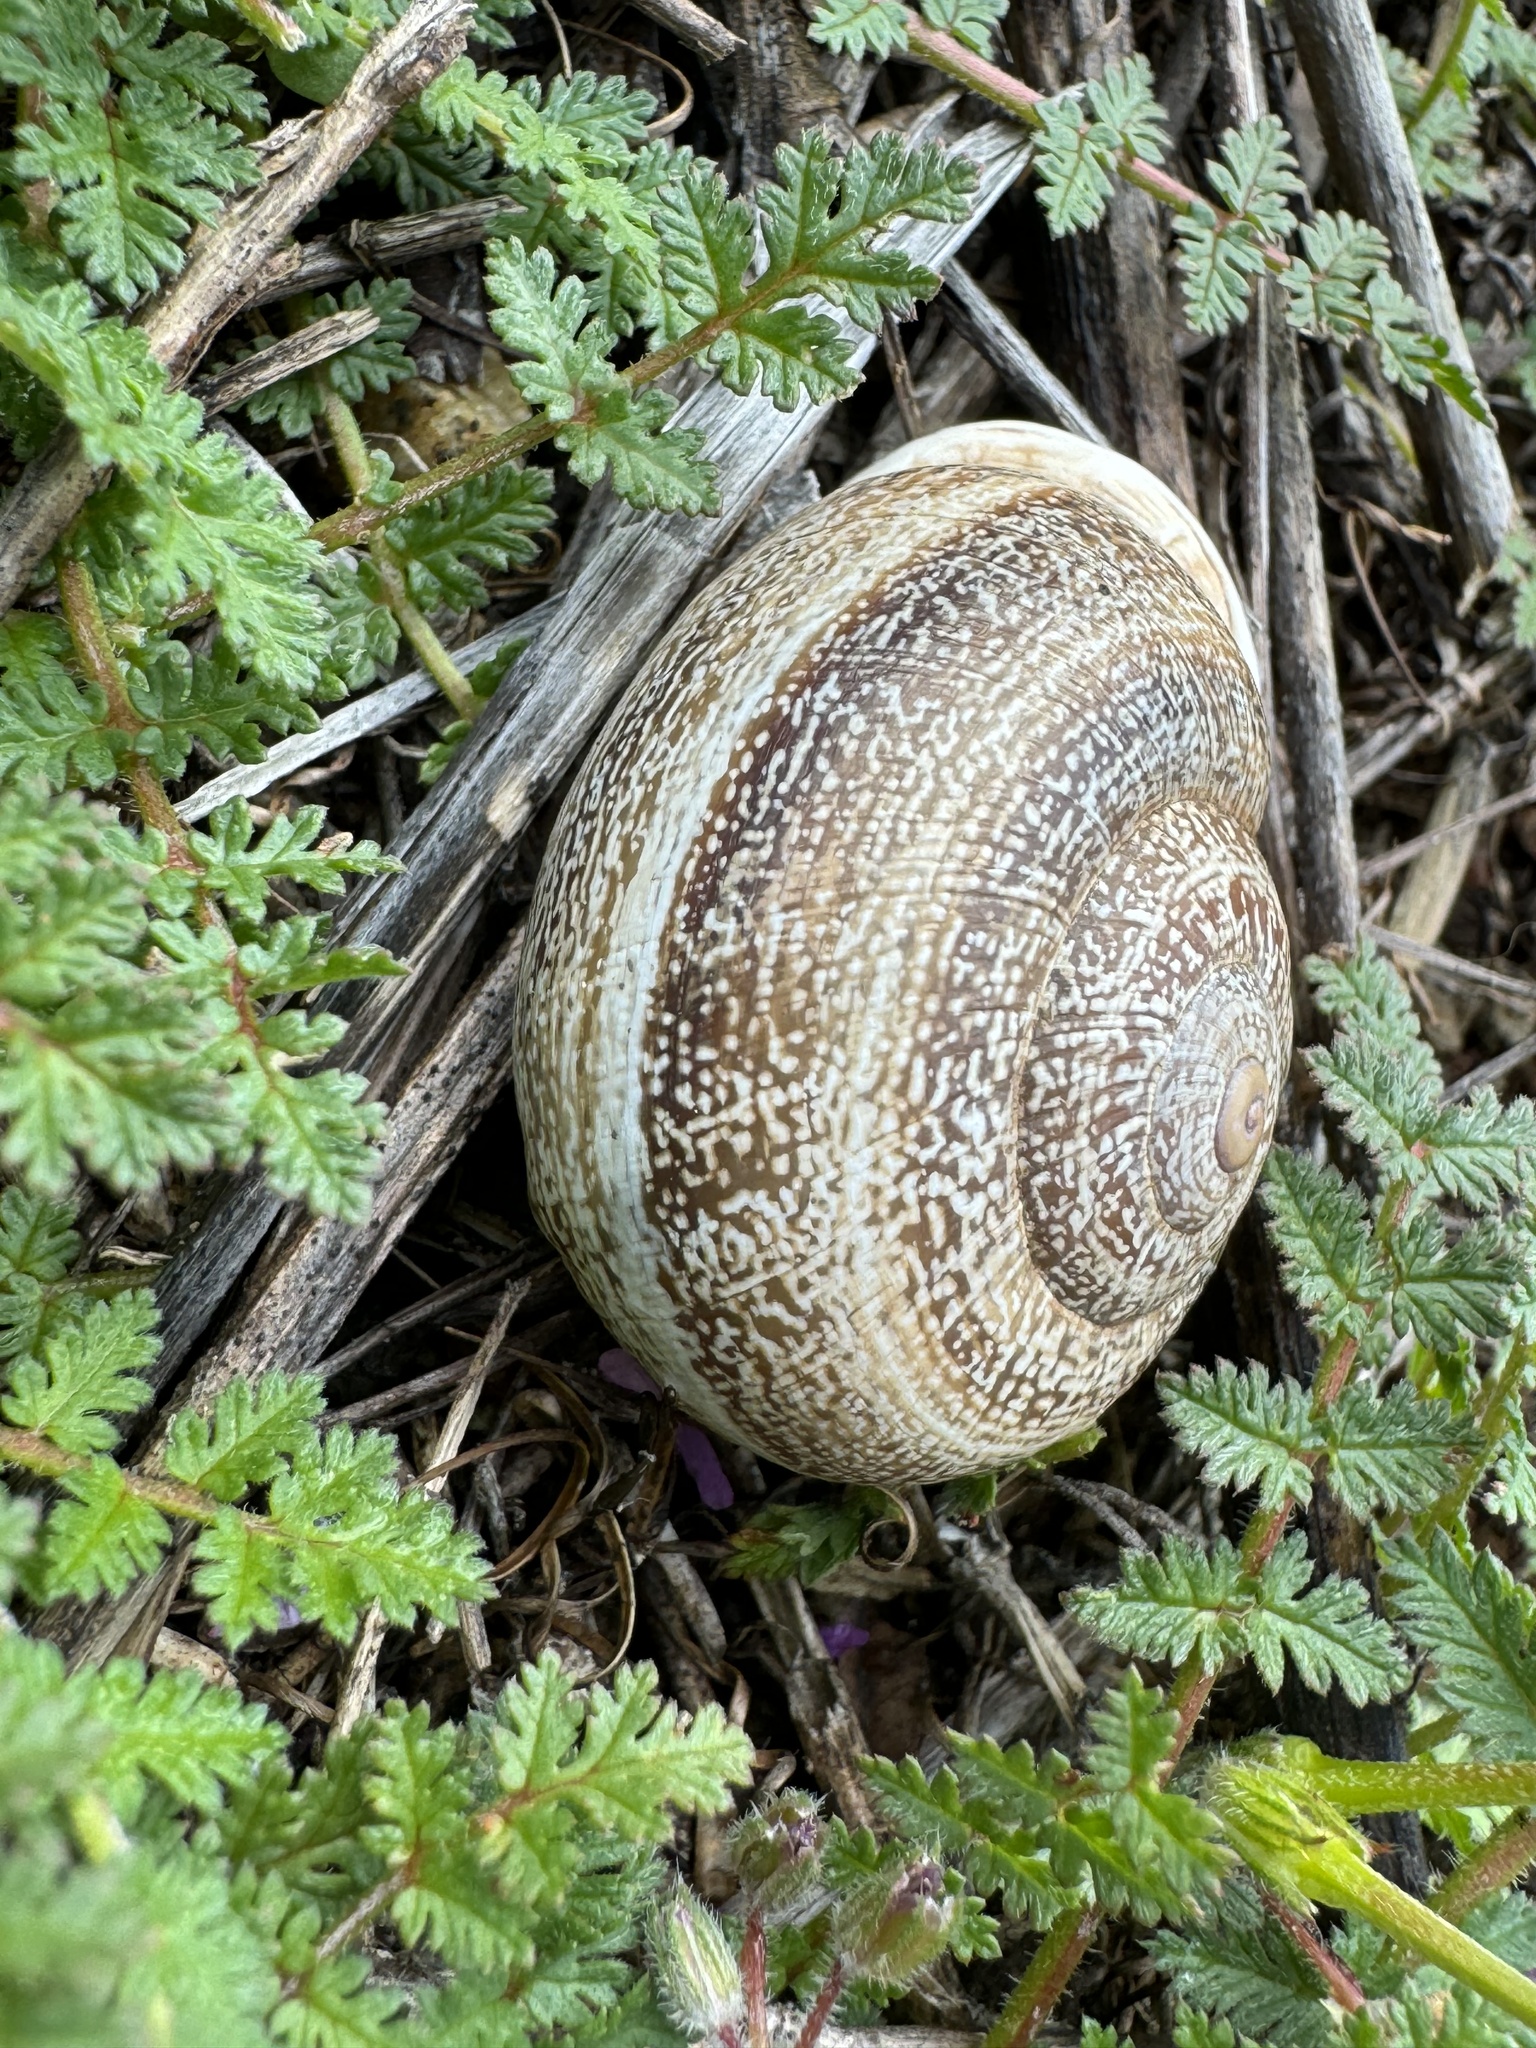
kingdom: Animalia
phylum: Mollusca
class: Gastropoda
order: Stylommatophora
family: Helicidae
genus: Otala
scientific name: Otala lactea
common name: Milk snail
